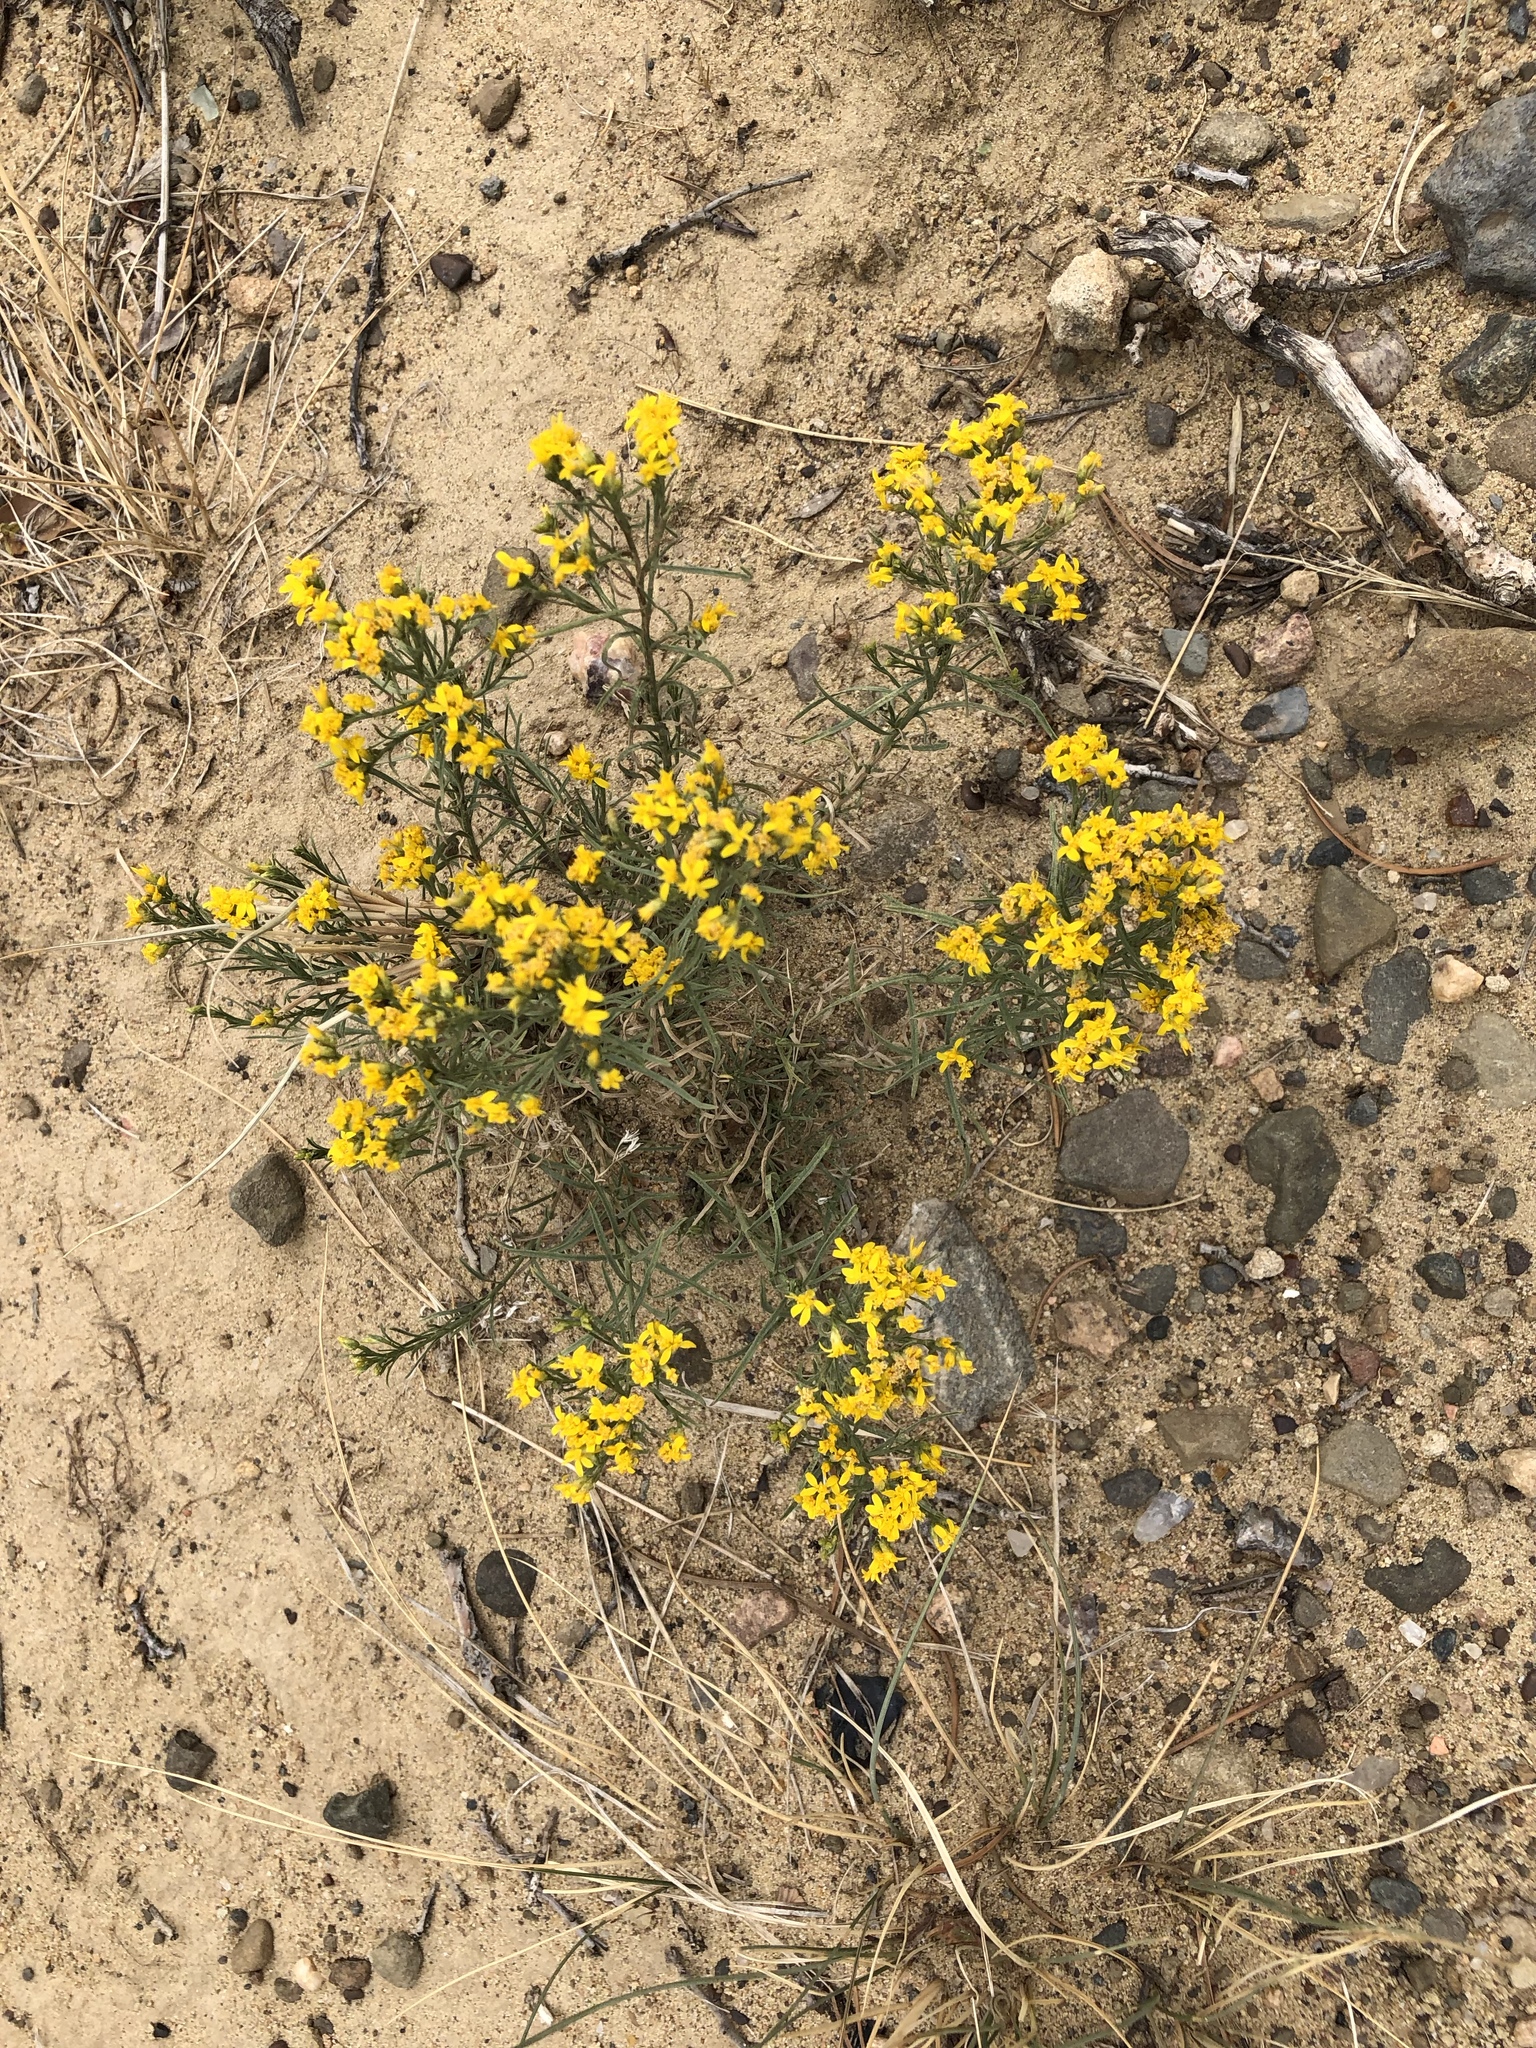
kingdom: Plantae
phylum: Tracheophyta
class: Magnoliopsida
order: Asterales
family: Asteraceae
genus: Gutierrezia
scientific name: Gutierrezia sarothrae
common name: Broom snakeweed
